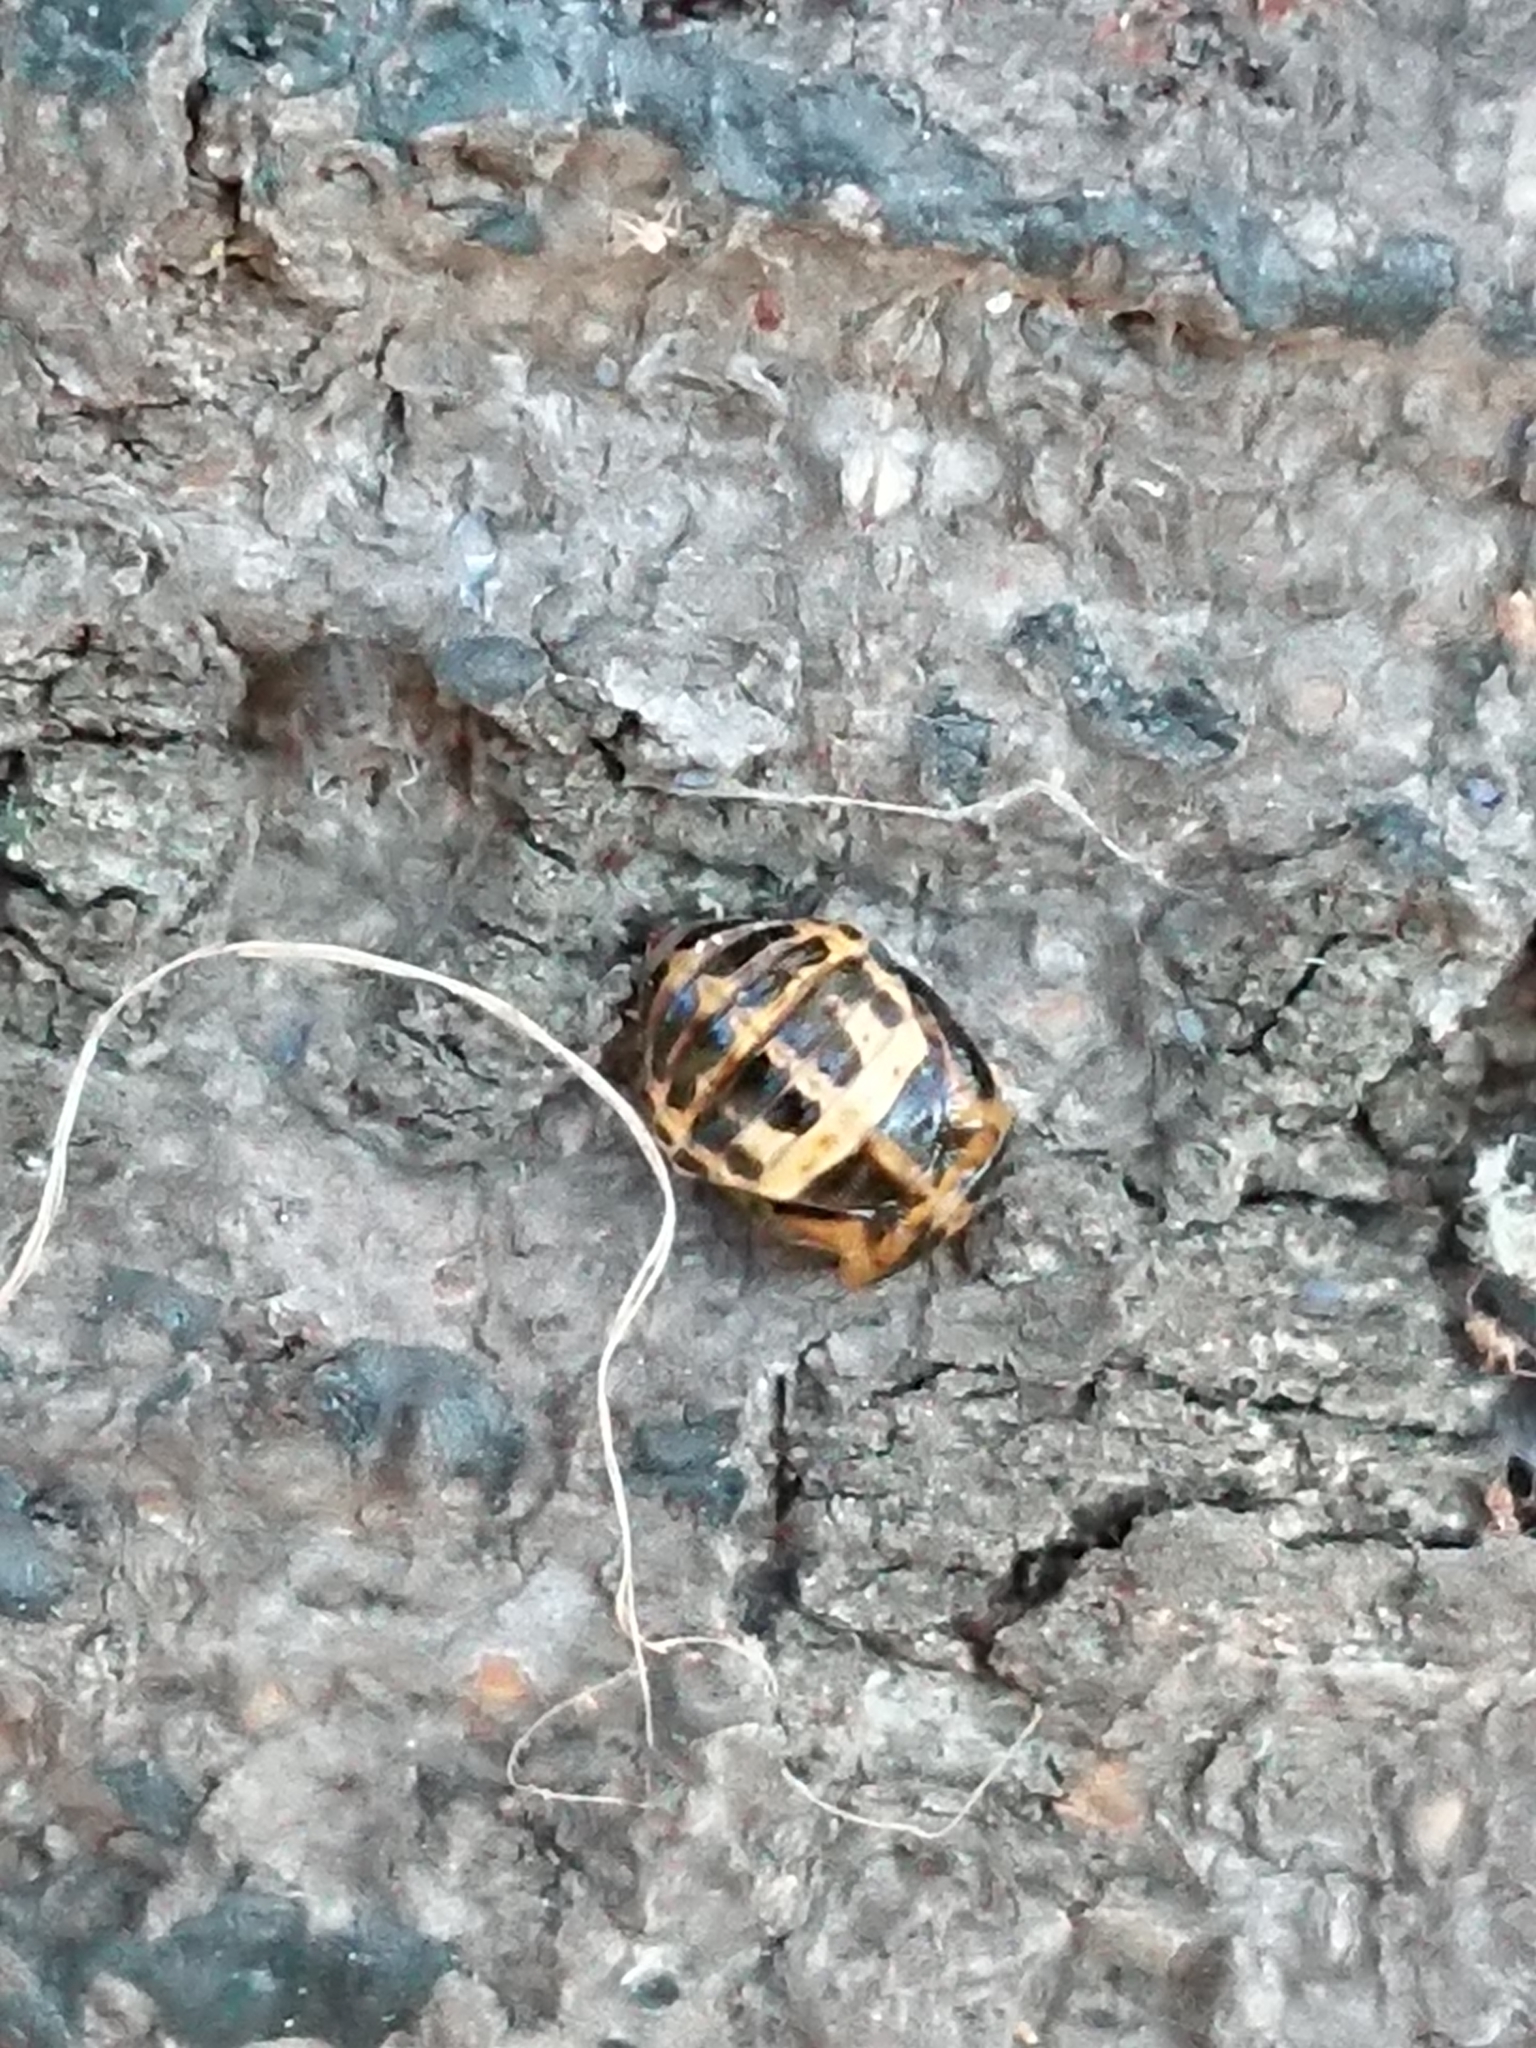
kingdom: Animalia
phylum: Arthropoda
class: Insecta
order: Coleoptera
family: Coccinellidae
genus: Adalia
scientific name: Adalia bipunctata
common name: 2-spot ladybird
